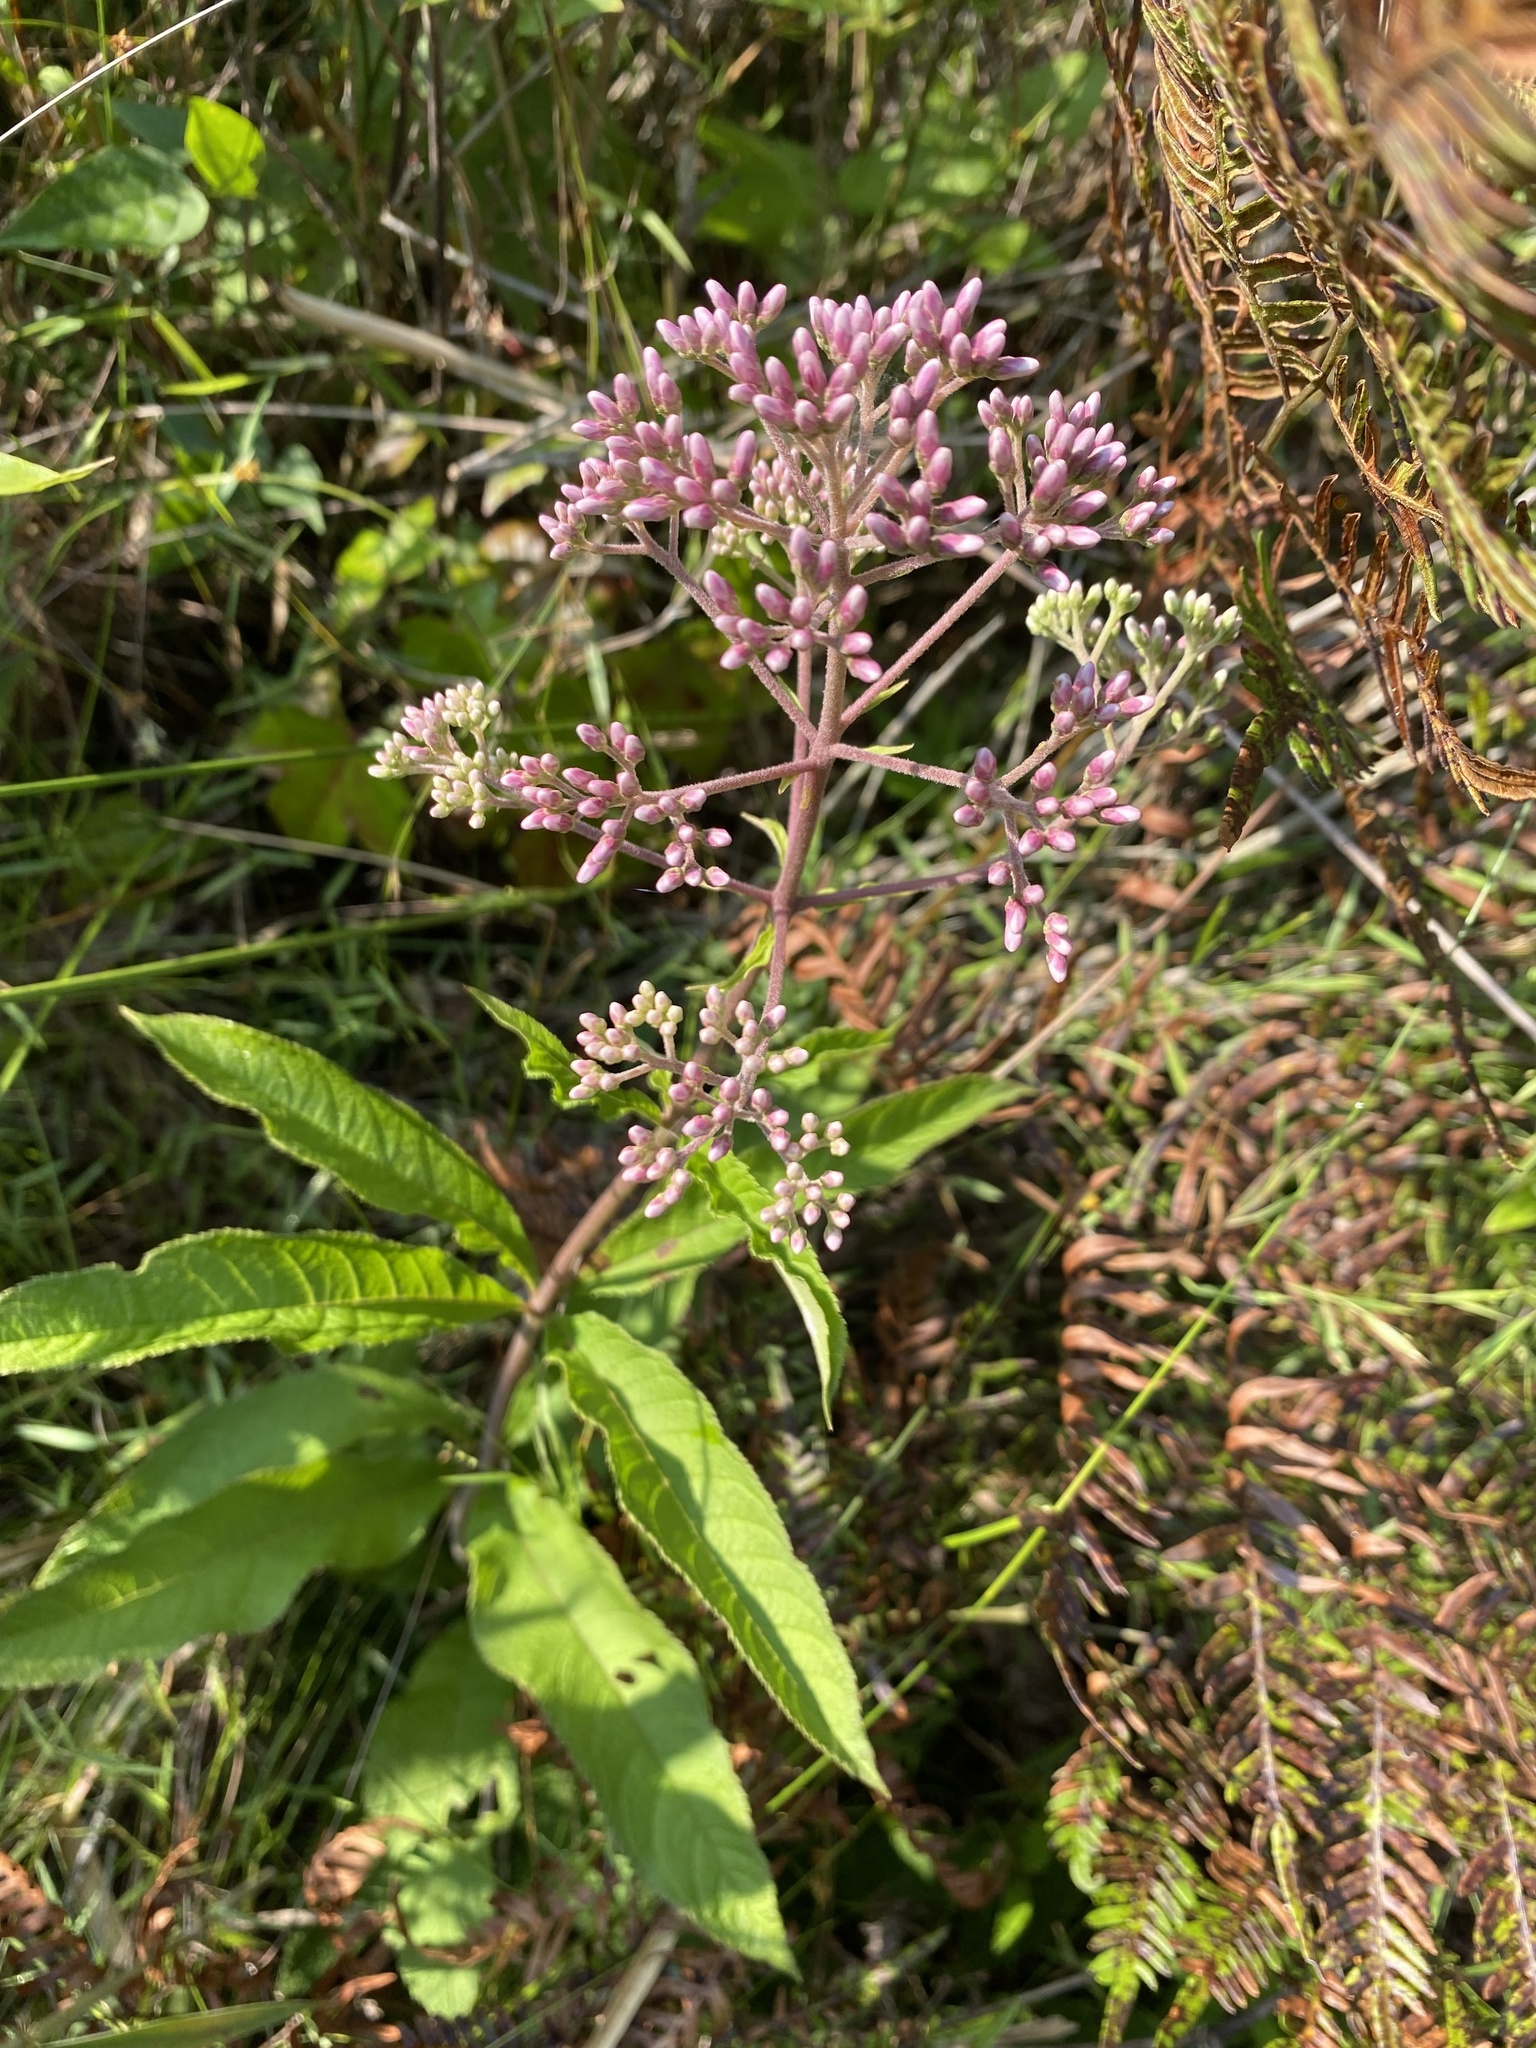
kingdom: Plantae
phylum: Tracheophyta
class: Magnoliopsida
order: Asterales
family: Asteraceae
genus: Eutrochium
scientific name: Eutrochium fistulosum
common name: Trumpetweed
